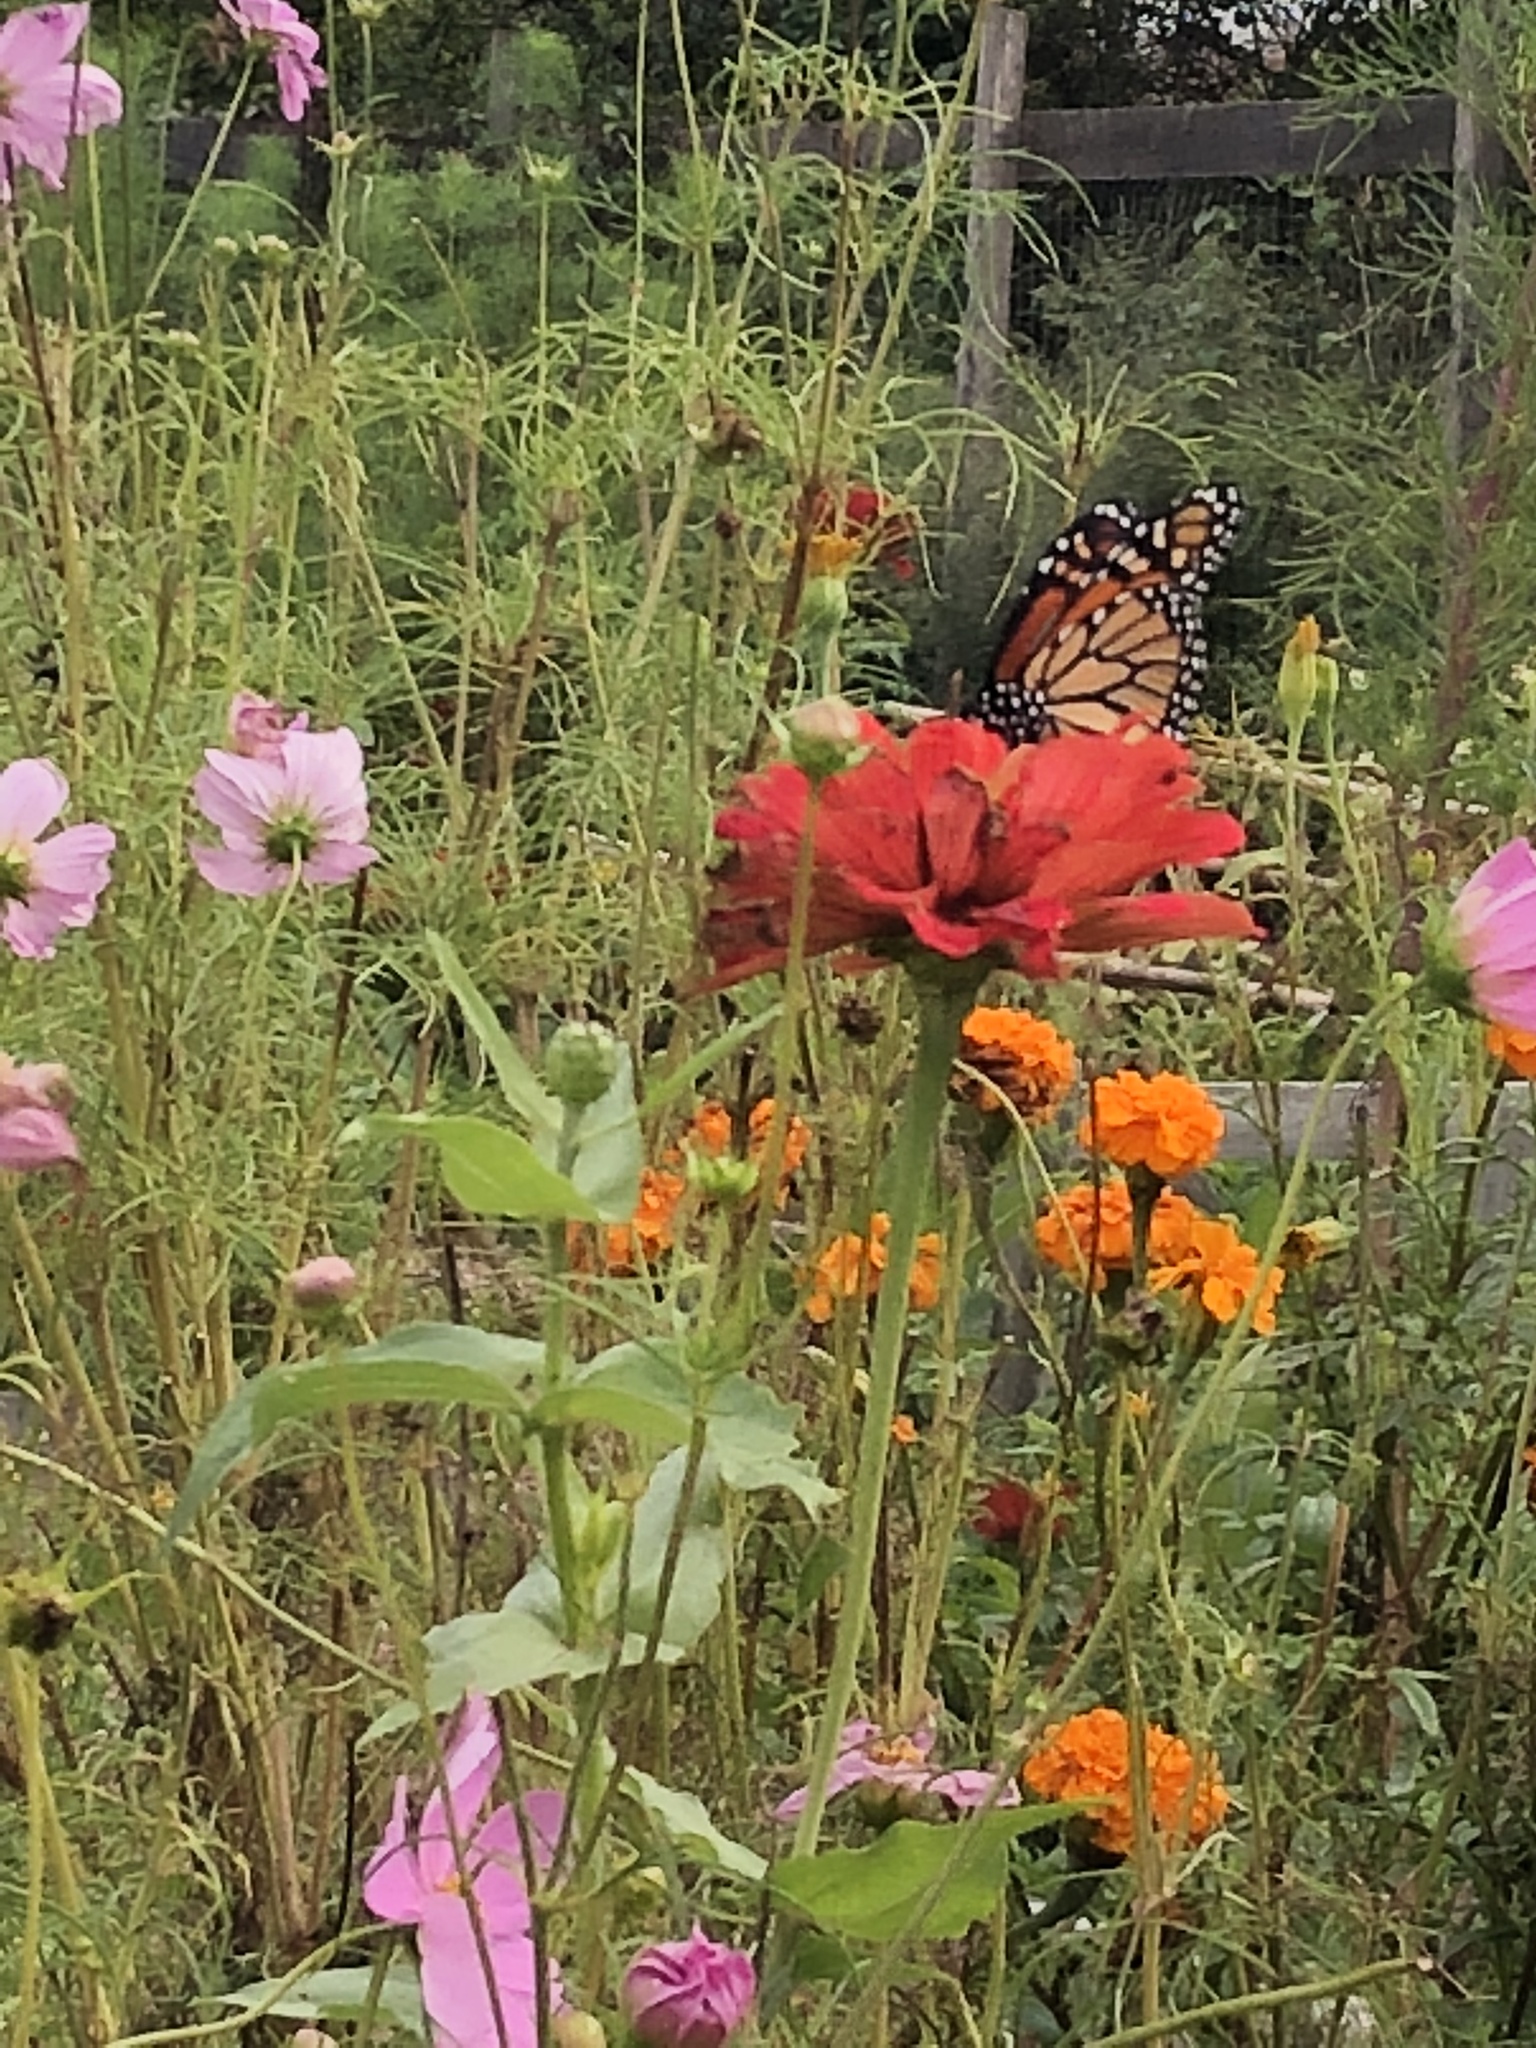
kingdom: Animalia
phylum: Arthropoda
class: Insecta
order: Lepidoptera
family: Nymphalidae
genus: Danaus
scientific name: Danaus plexippus
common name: Monarch
